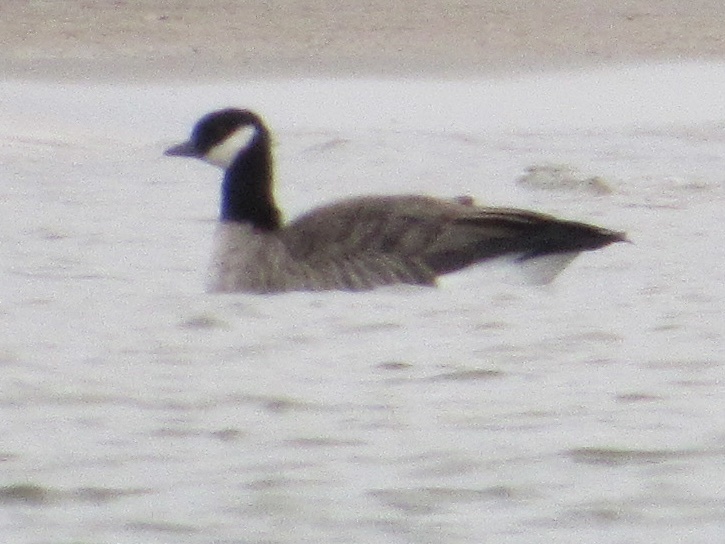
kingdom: Animalia
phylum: Chordata
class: Aves
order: Anseriformes
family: Anatidae
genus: Branta
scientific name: Branta hutchinsii
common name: Cackling goose
